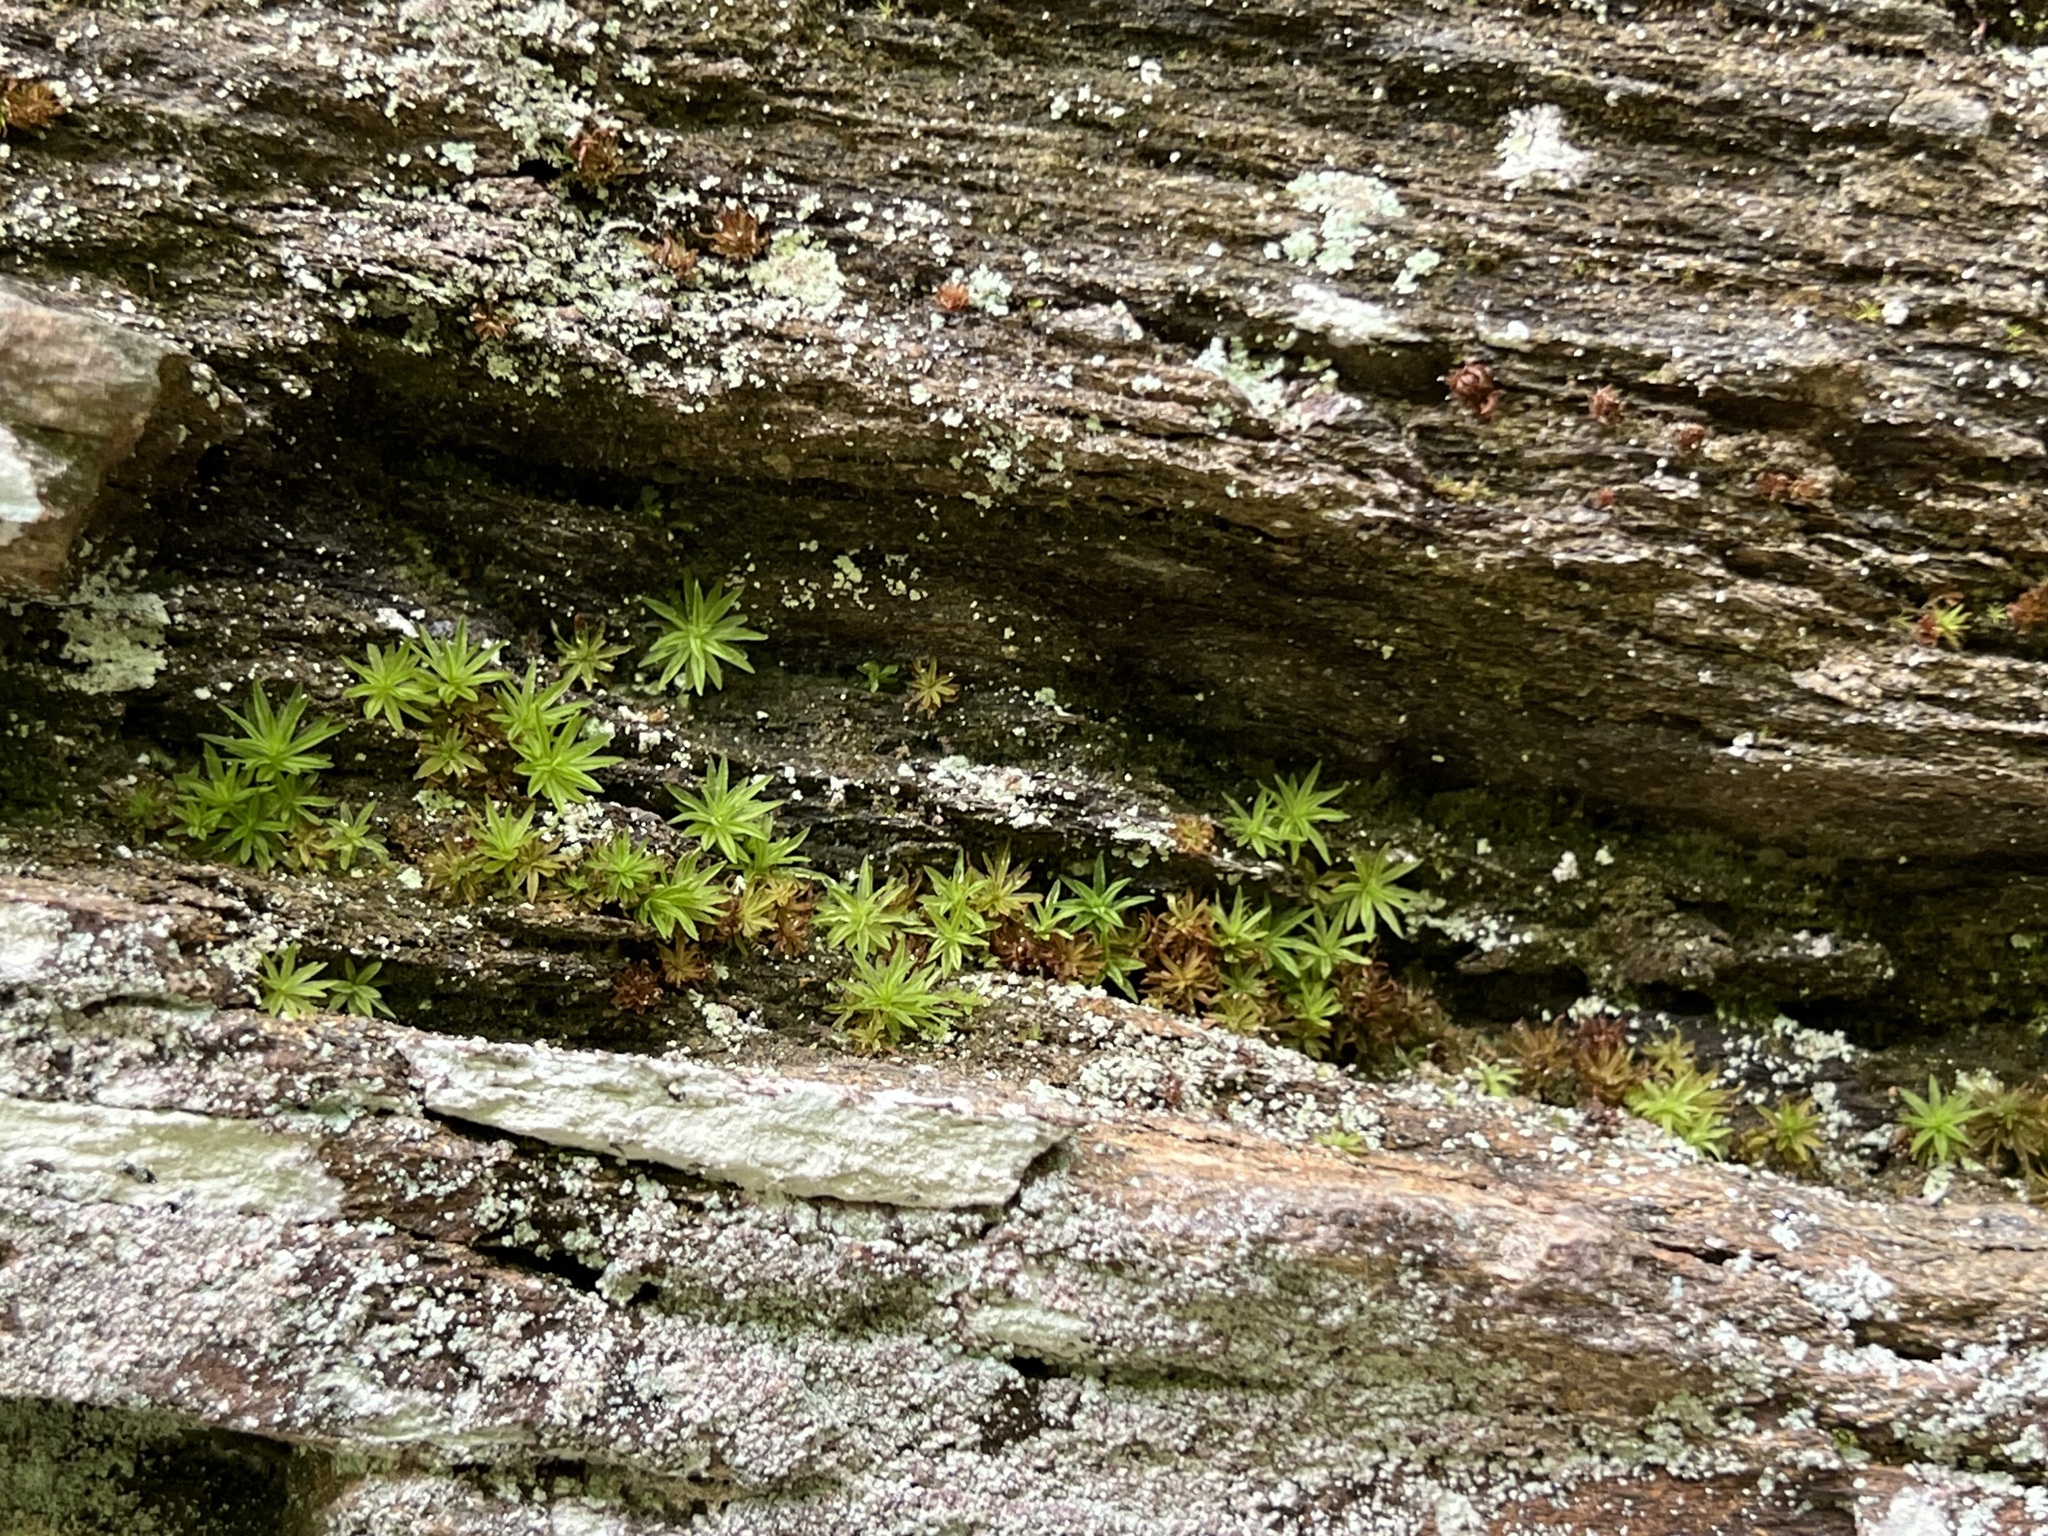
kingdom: Plantae
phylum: Bryophyta
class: Polytrichopsida
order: Polytrichales
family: Polytrichaceae
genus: Atrichum
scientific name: Atrichum angustatum
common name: Lesser smoothcap
